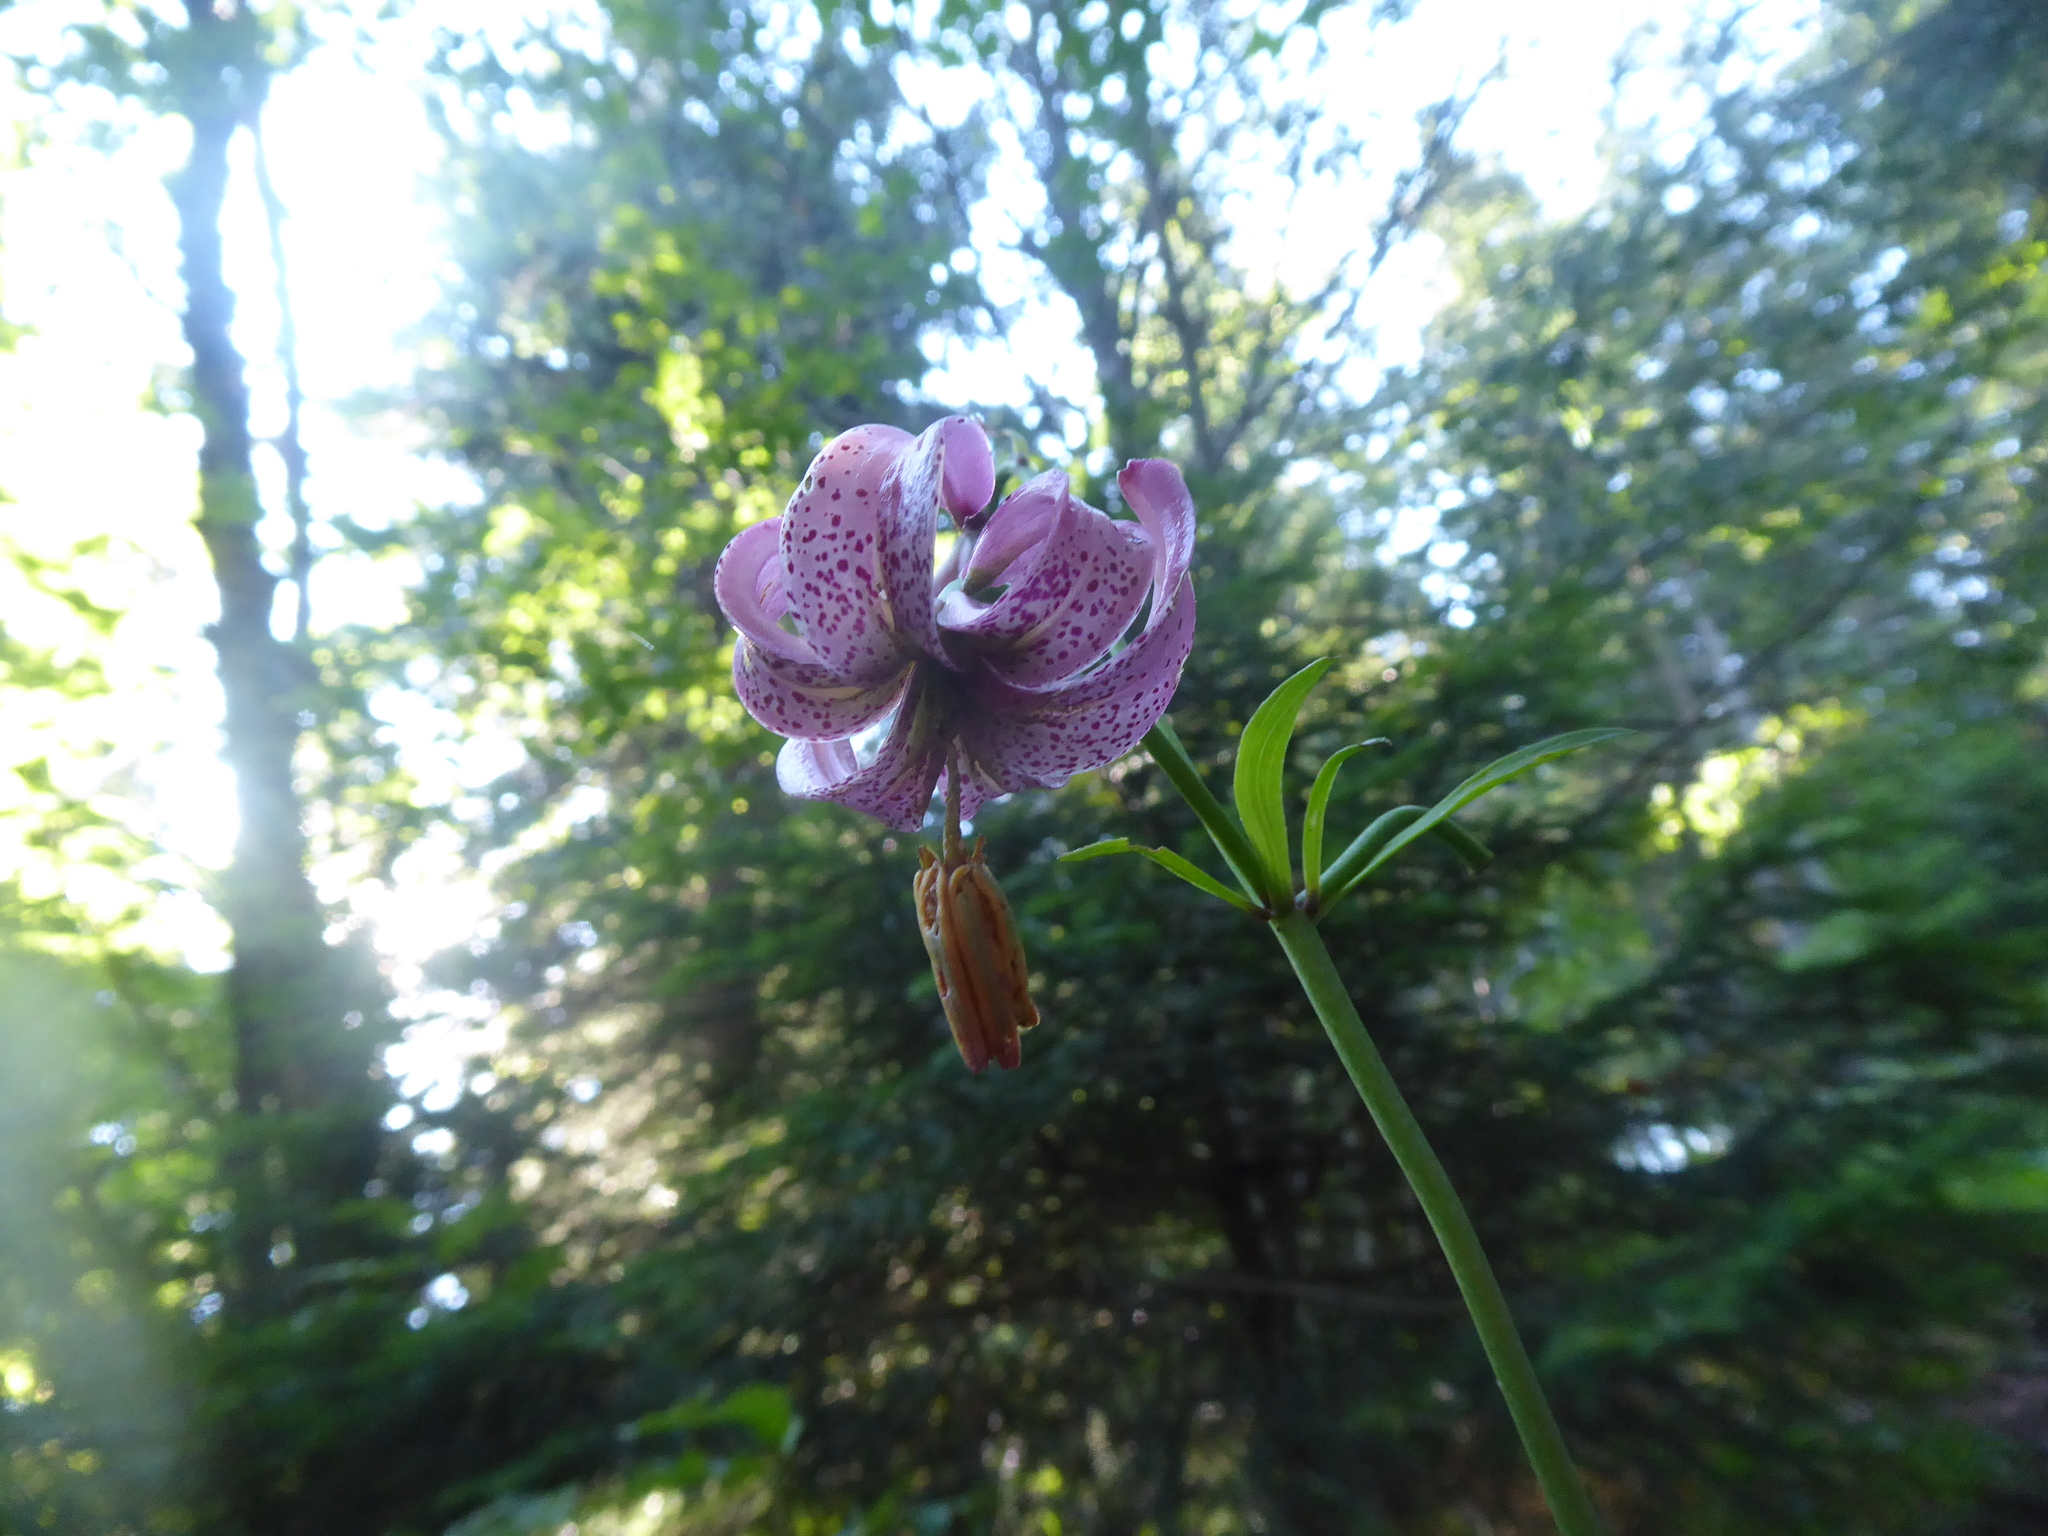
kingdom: Plantae
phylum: Tracheophyta
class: Liliopsida
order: Liliales
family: Liliaceae
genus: Lilium
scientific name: Lilium martagon
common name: Martagon lily
